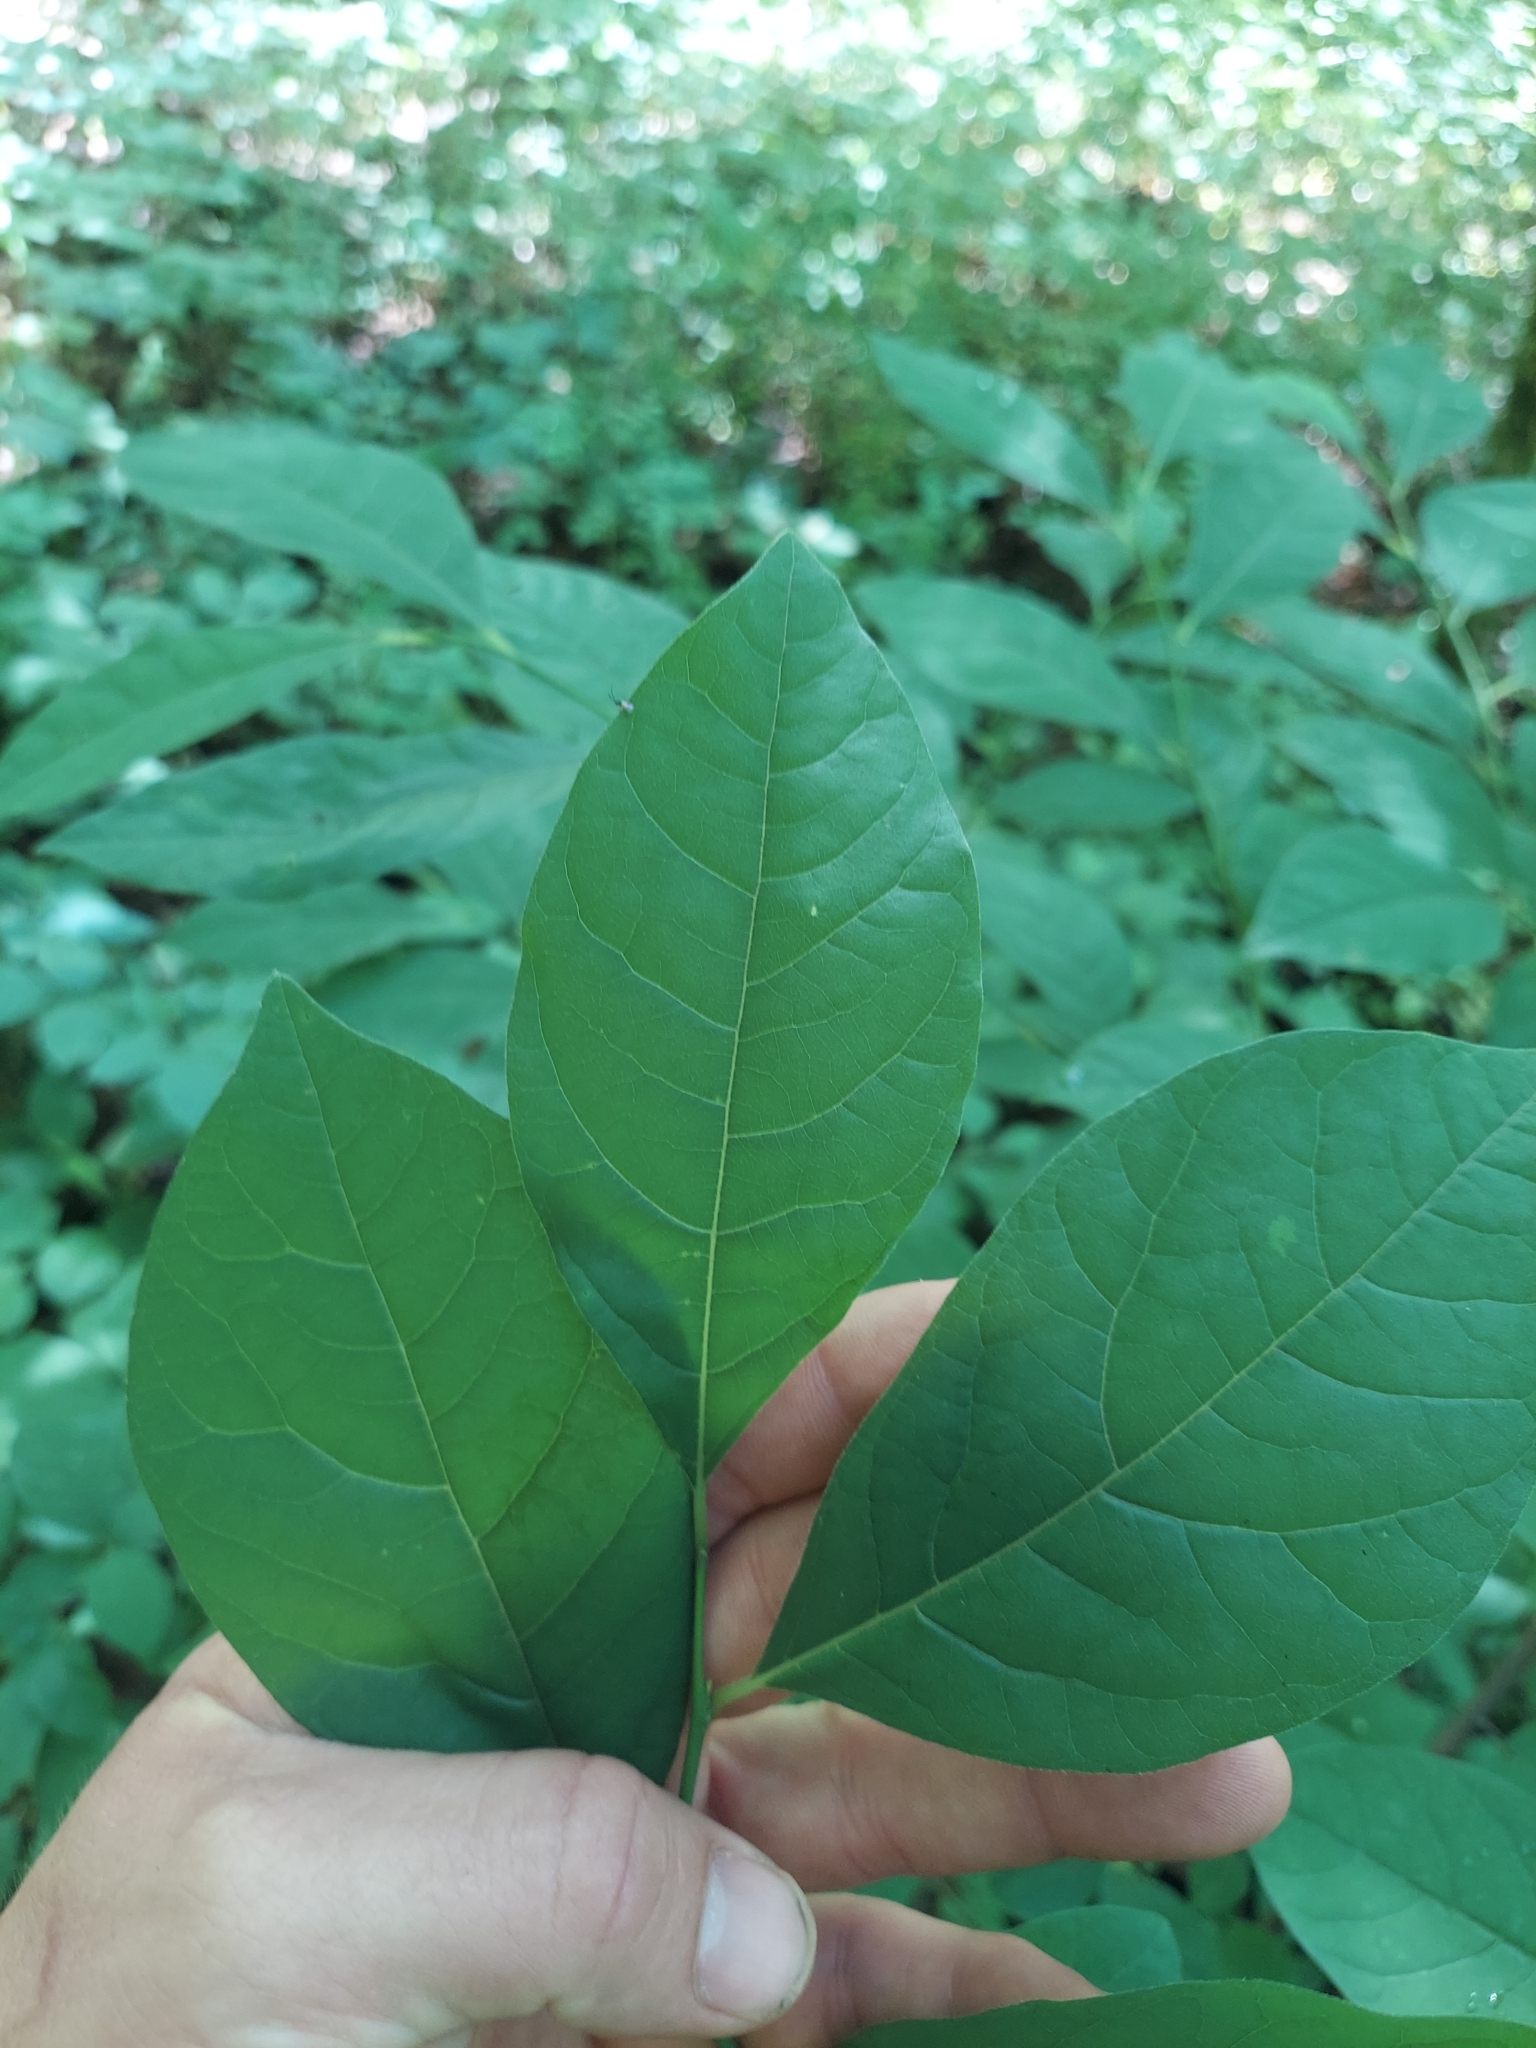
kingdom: Plantae
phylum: Tracheophyta
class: Magnoliopsida
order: Laurales
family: Lauraceae
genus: Lindera
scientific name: Lindera benzoin
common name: Spicebush
